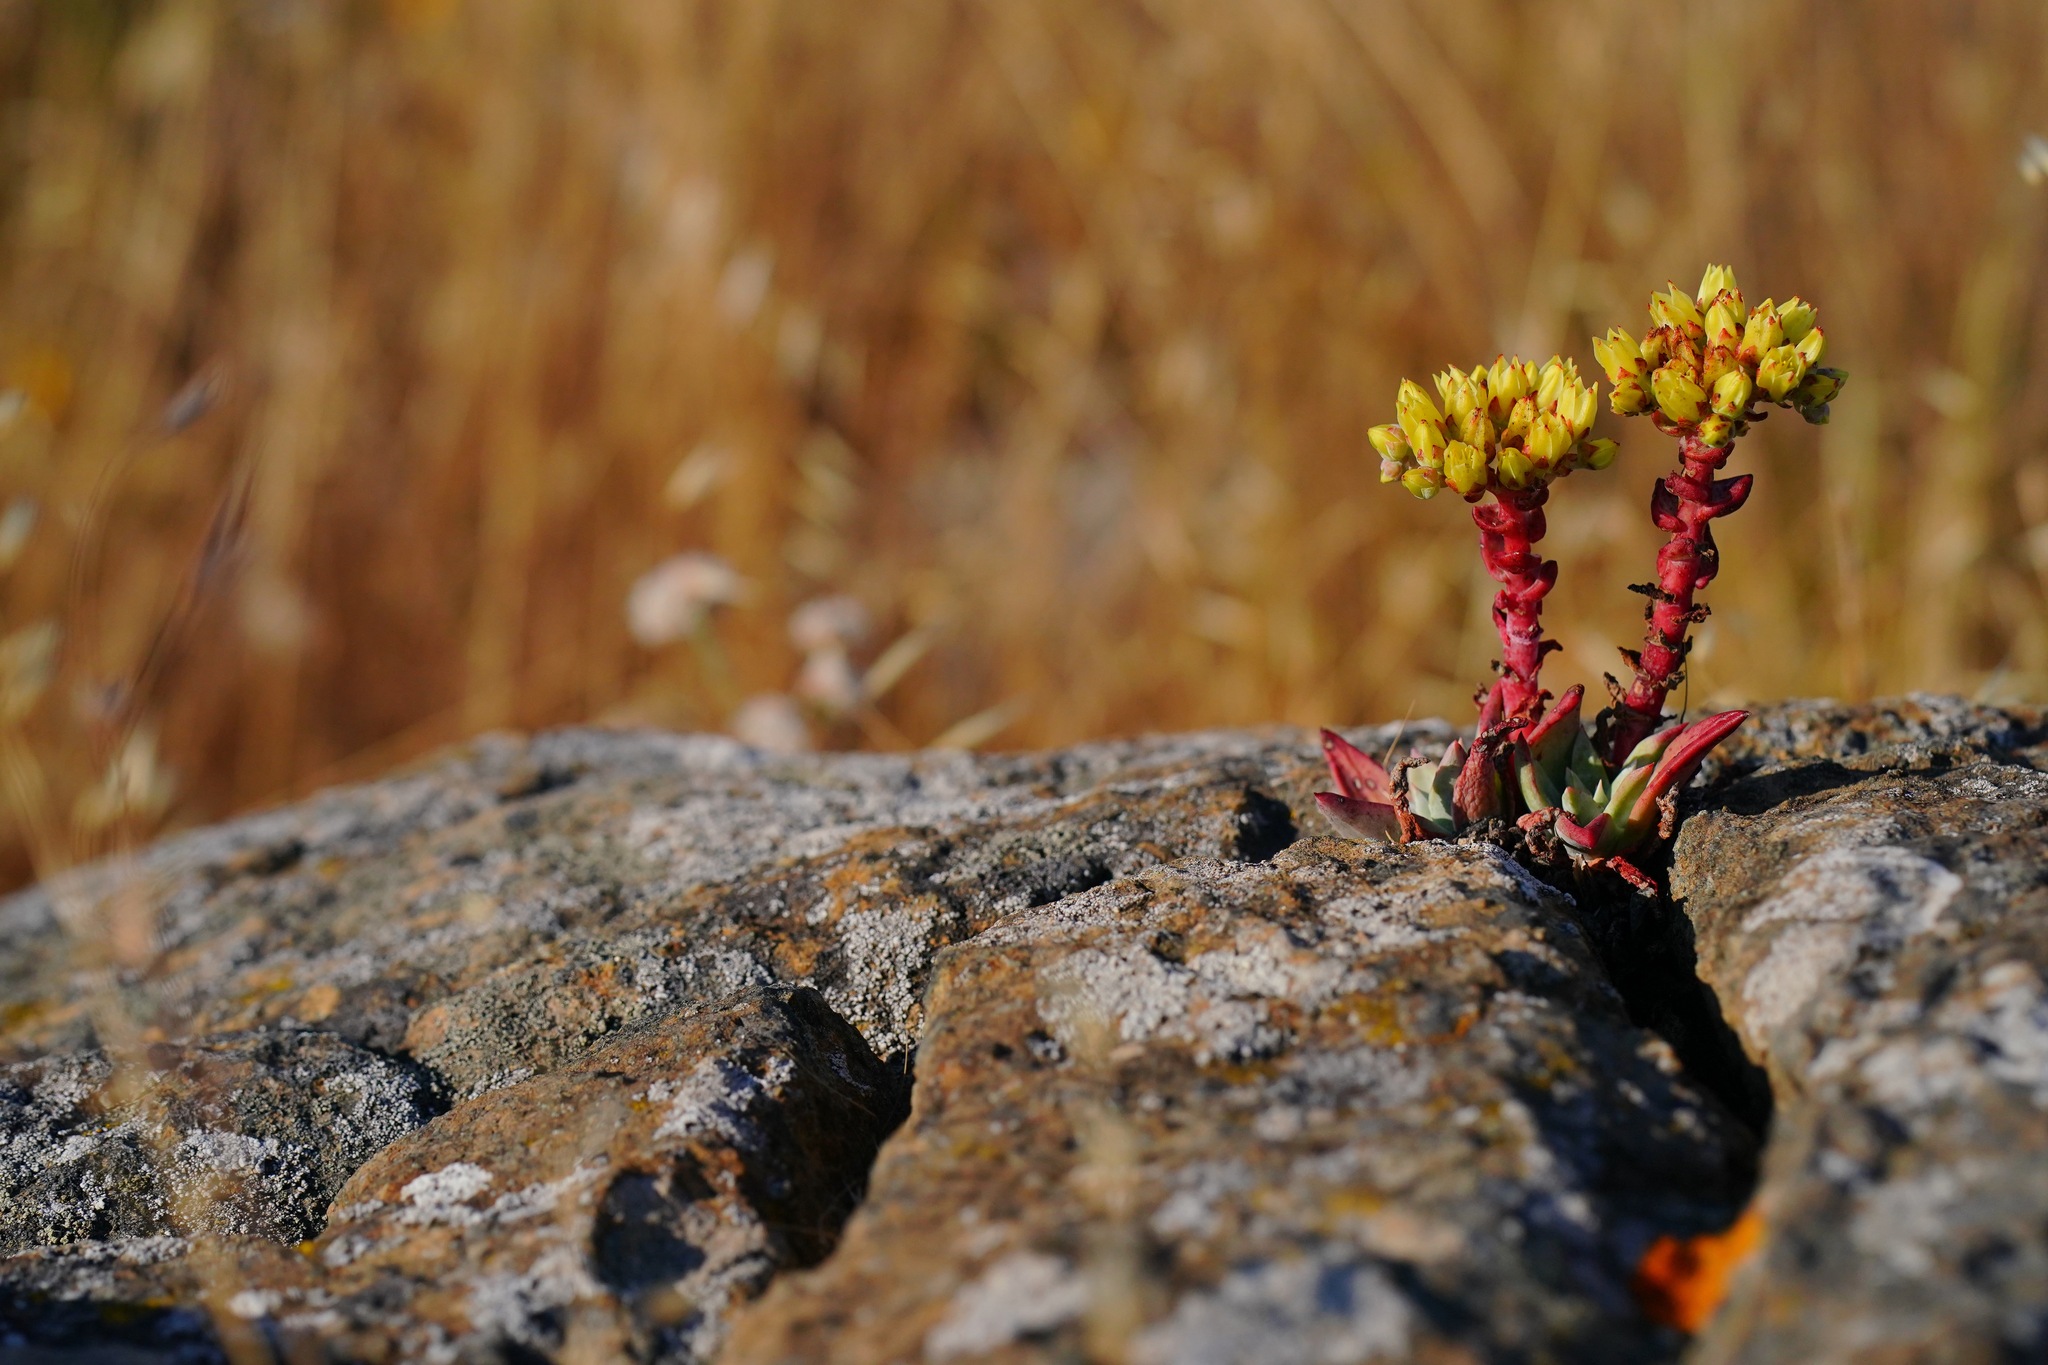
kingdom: Plantae
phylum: Tracheophyta
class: Magnoliopsida
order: Saxifragales
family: Crassulaceae
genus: Dudleya
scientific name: Dudleya farinosa
